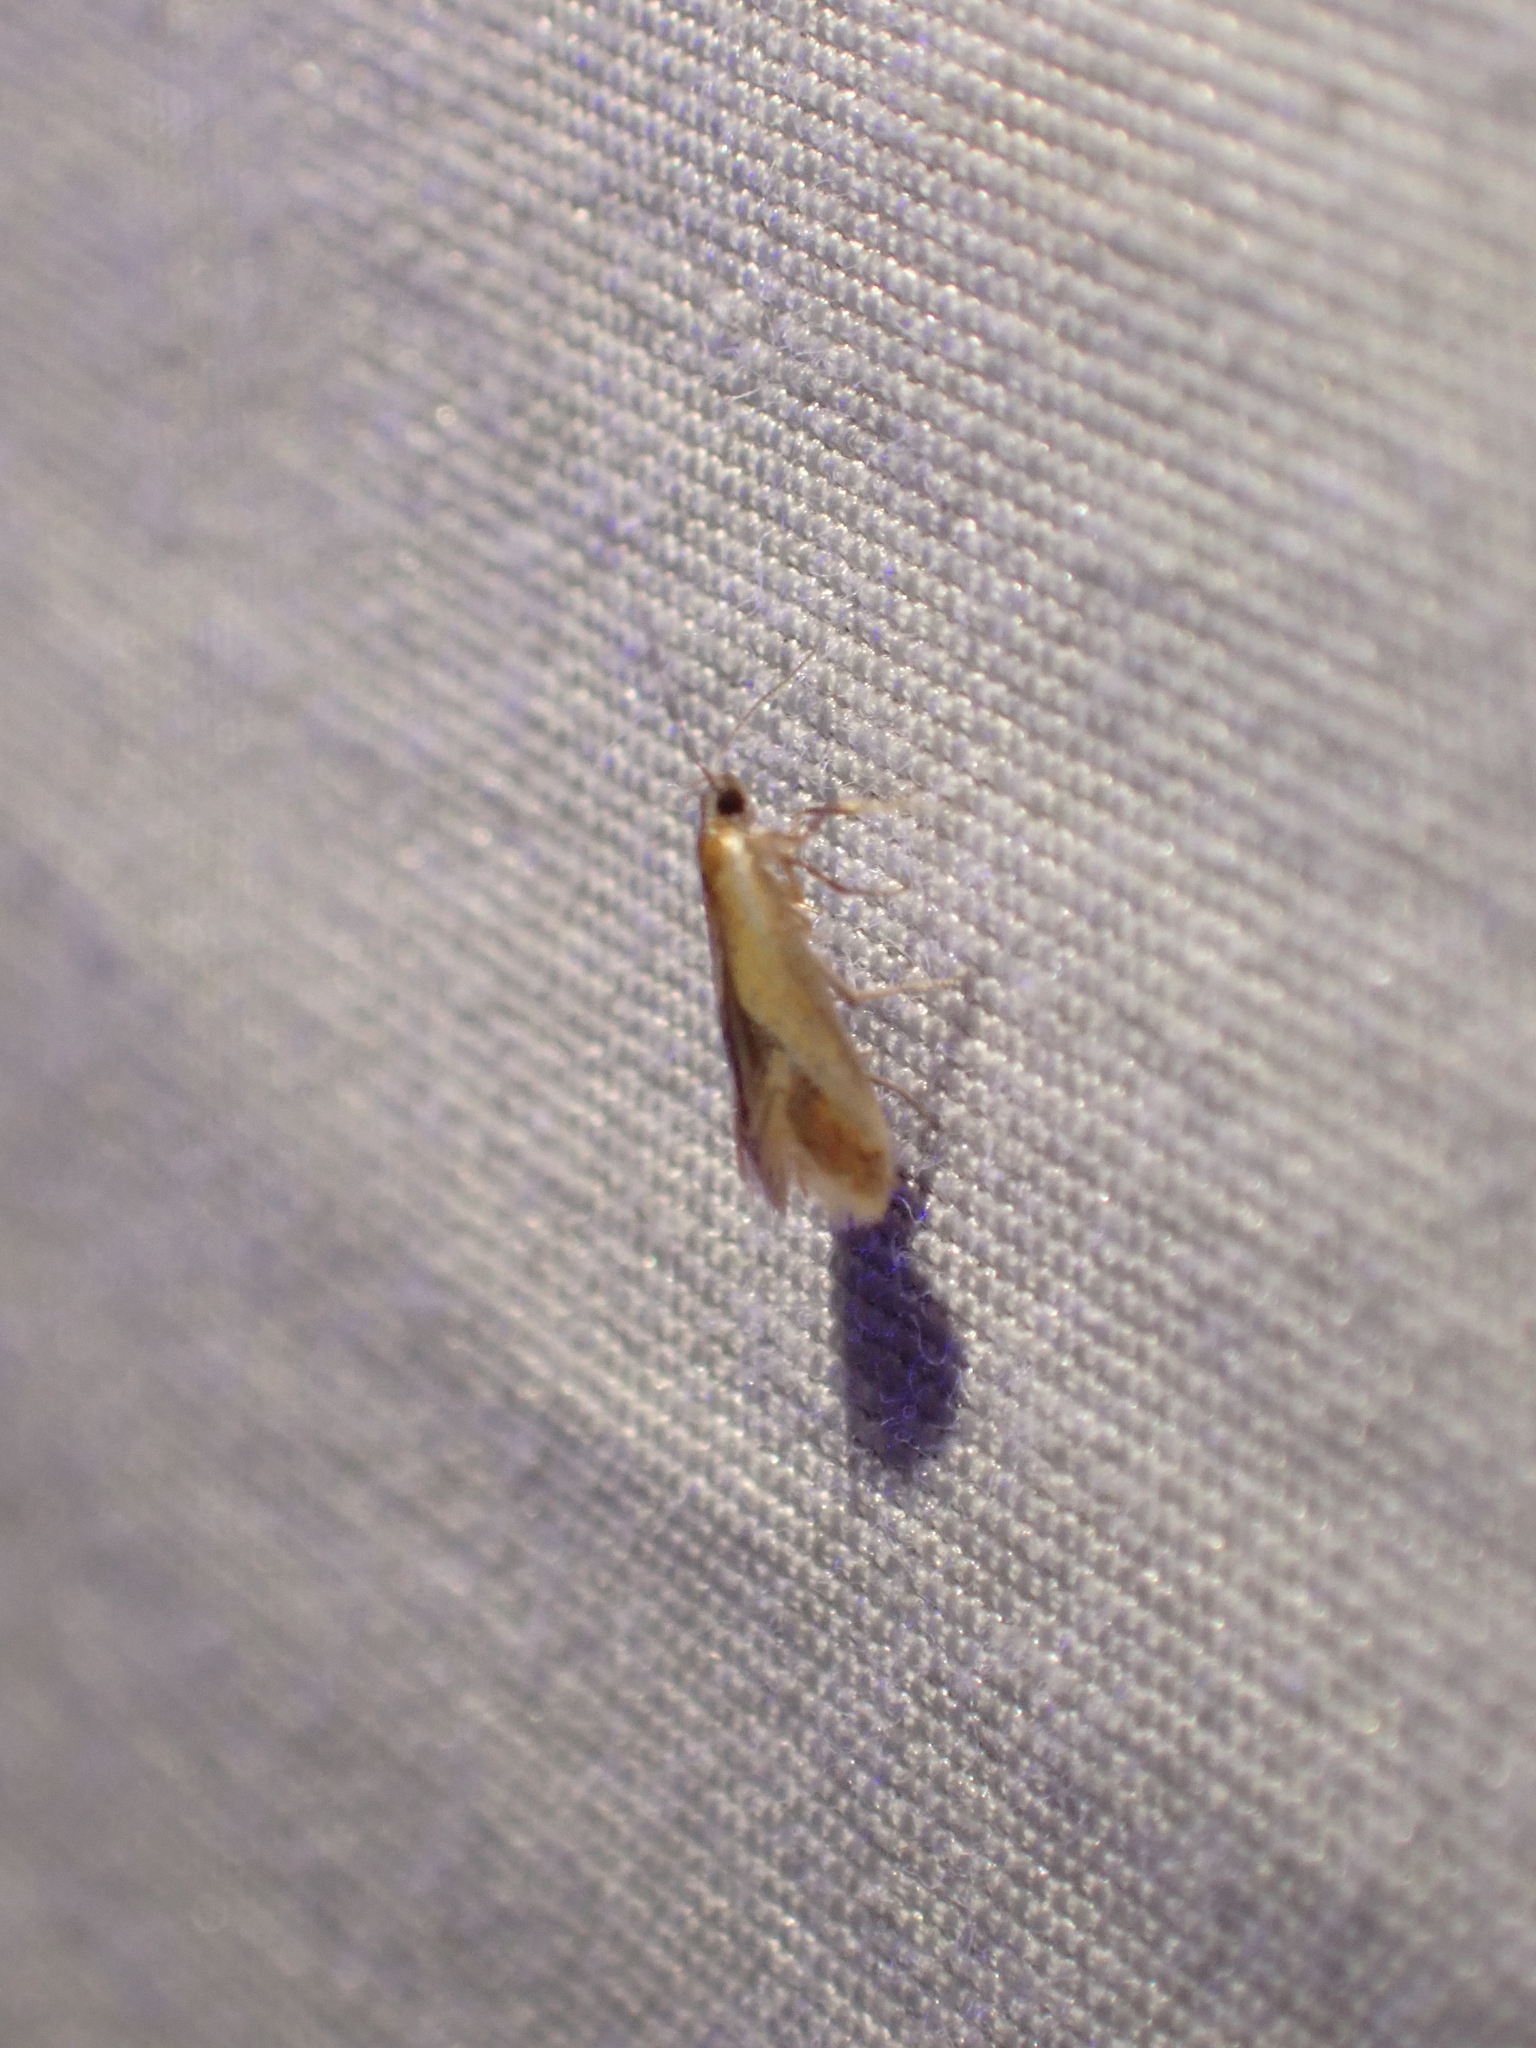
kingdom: Animalia
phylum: Arthropoda
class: Insecta
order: Lepidoptera
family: Oecophoridae
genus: Batia
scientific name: Batia lunaris
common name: Moth
